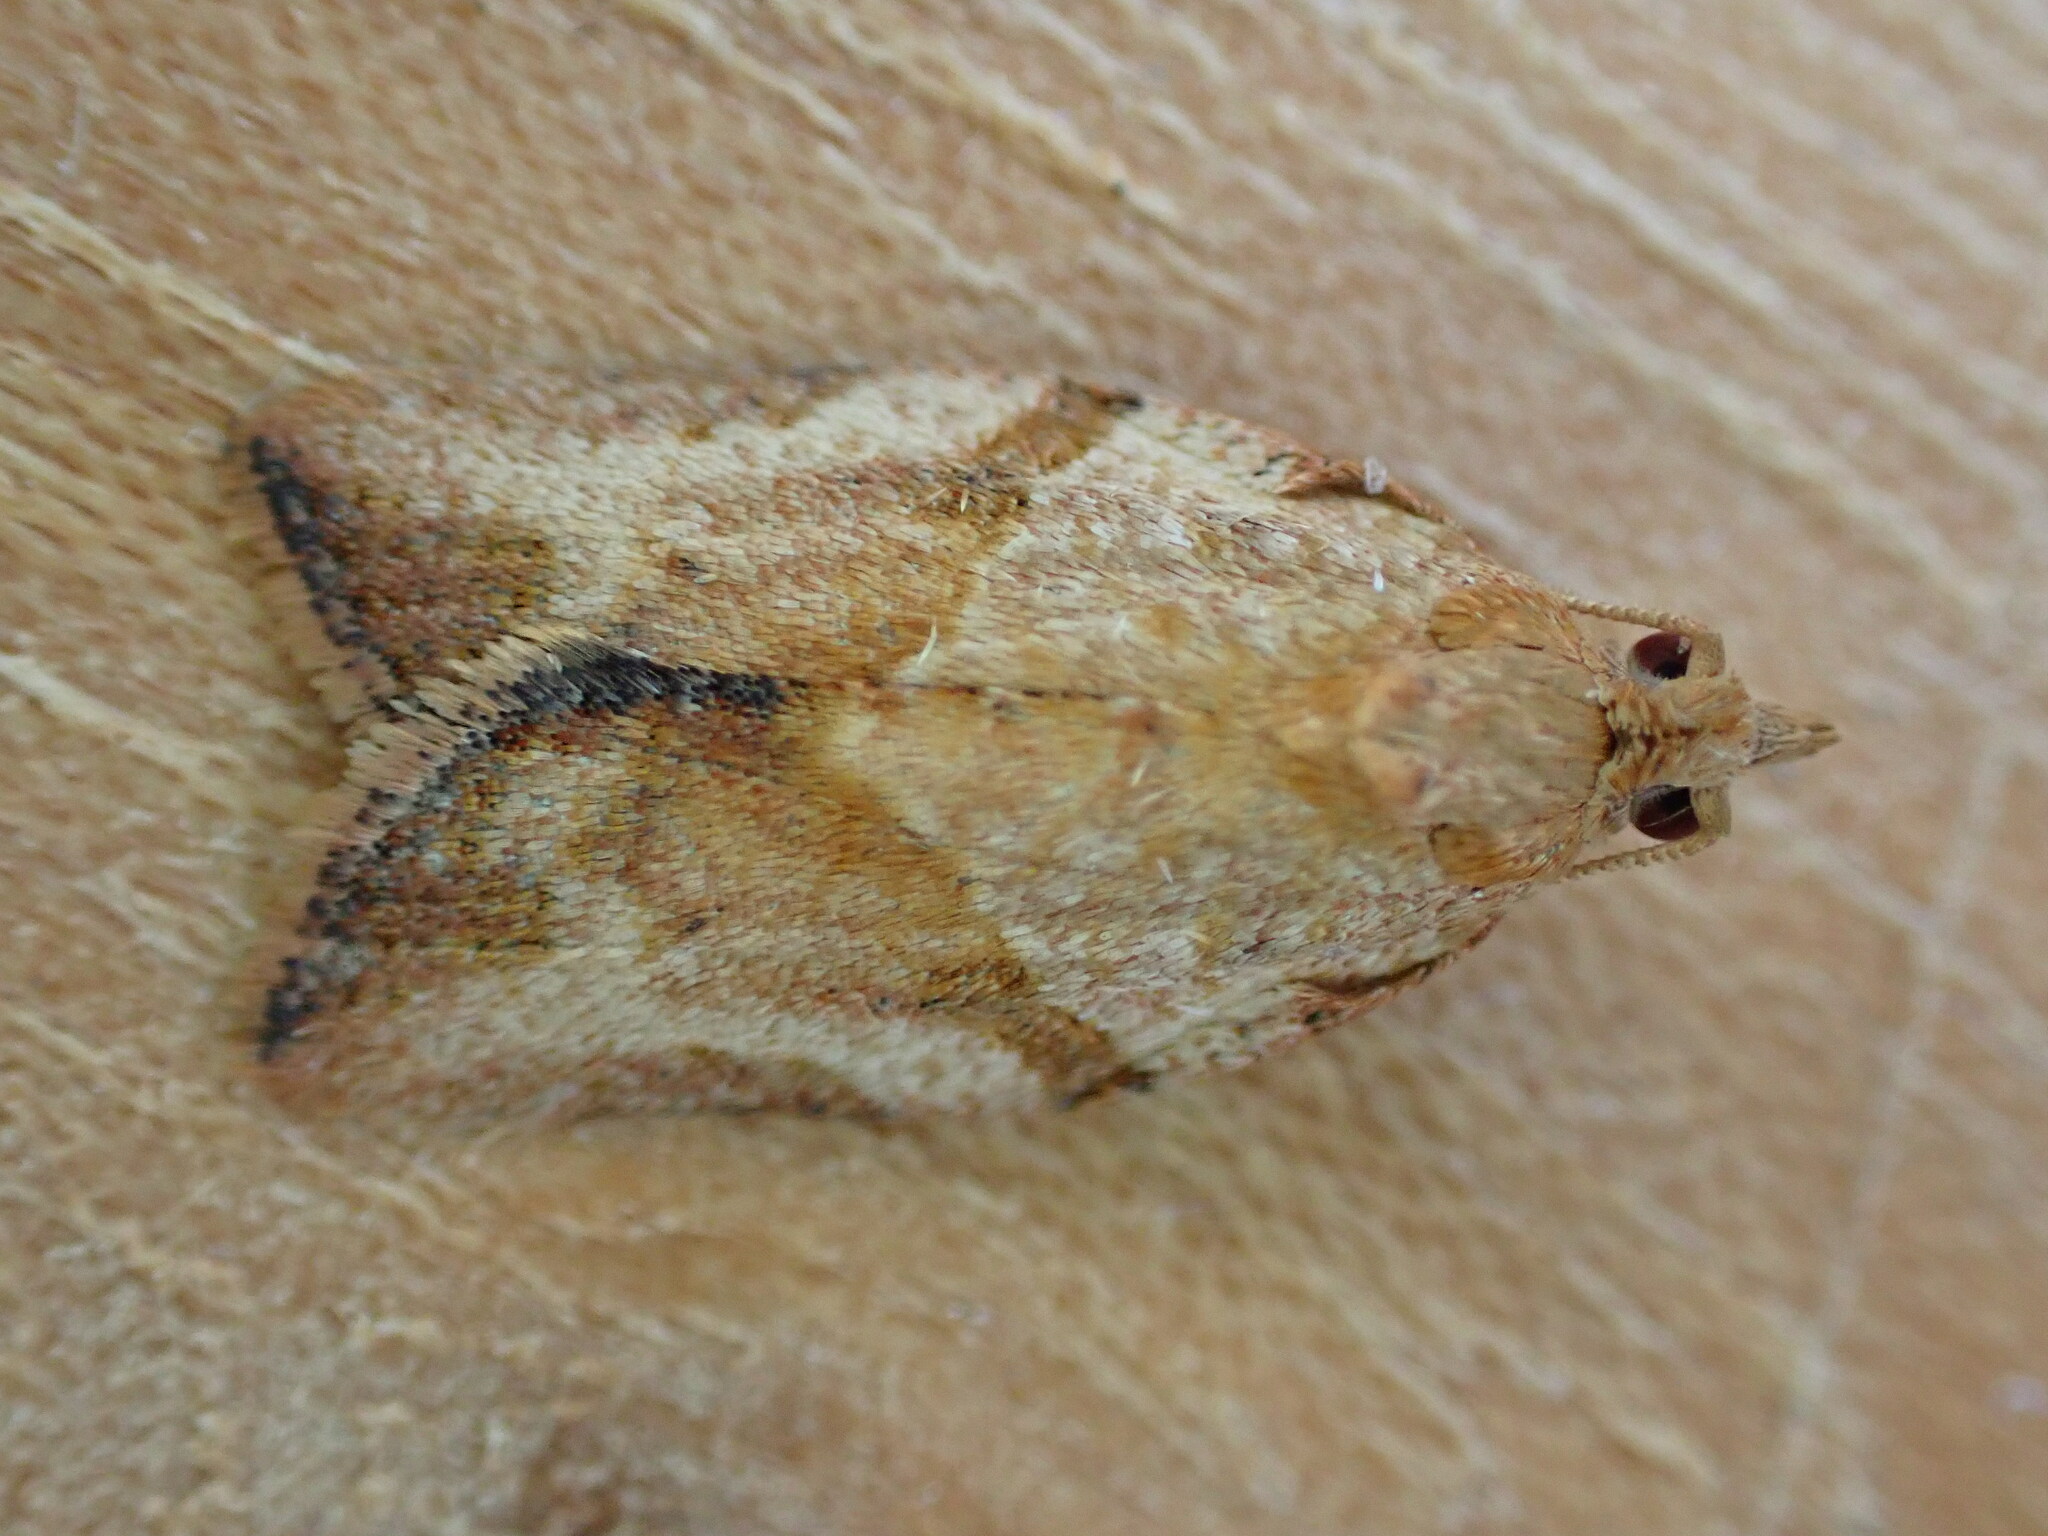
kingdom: Animalia
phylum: Arthropoda
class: Insecta
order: Lepidoptera
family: Tortricidae
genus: Epiphyas
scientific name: Epiphyas postvittana
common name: Light brown apple moth
